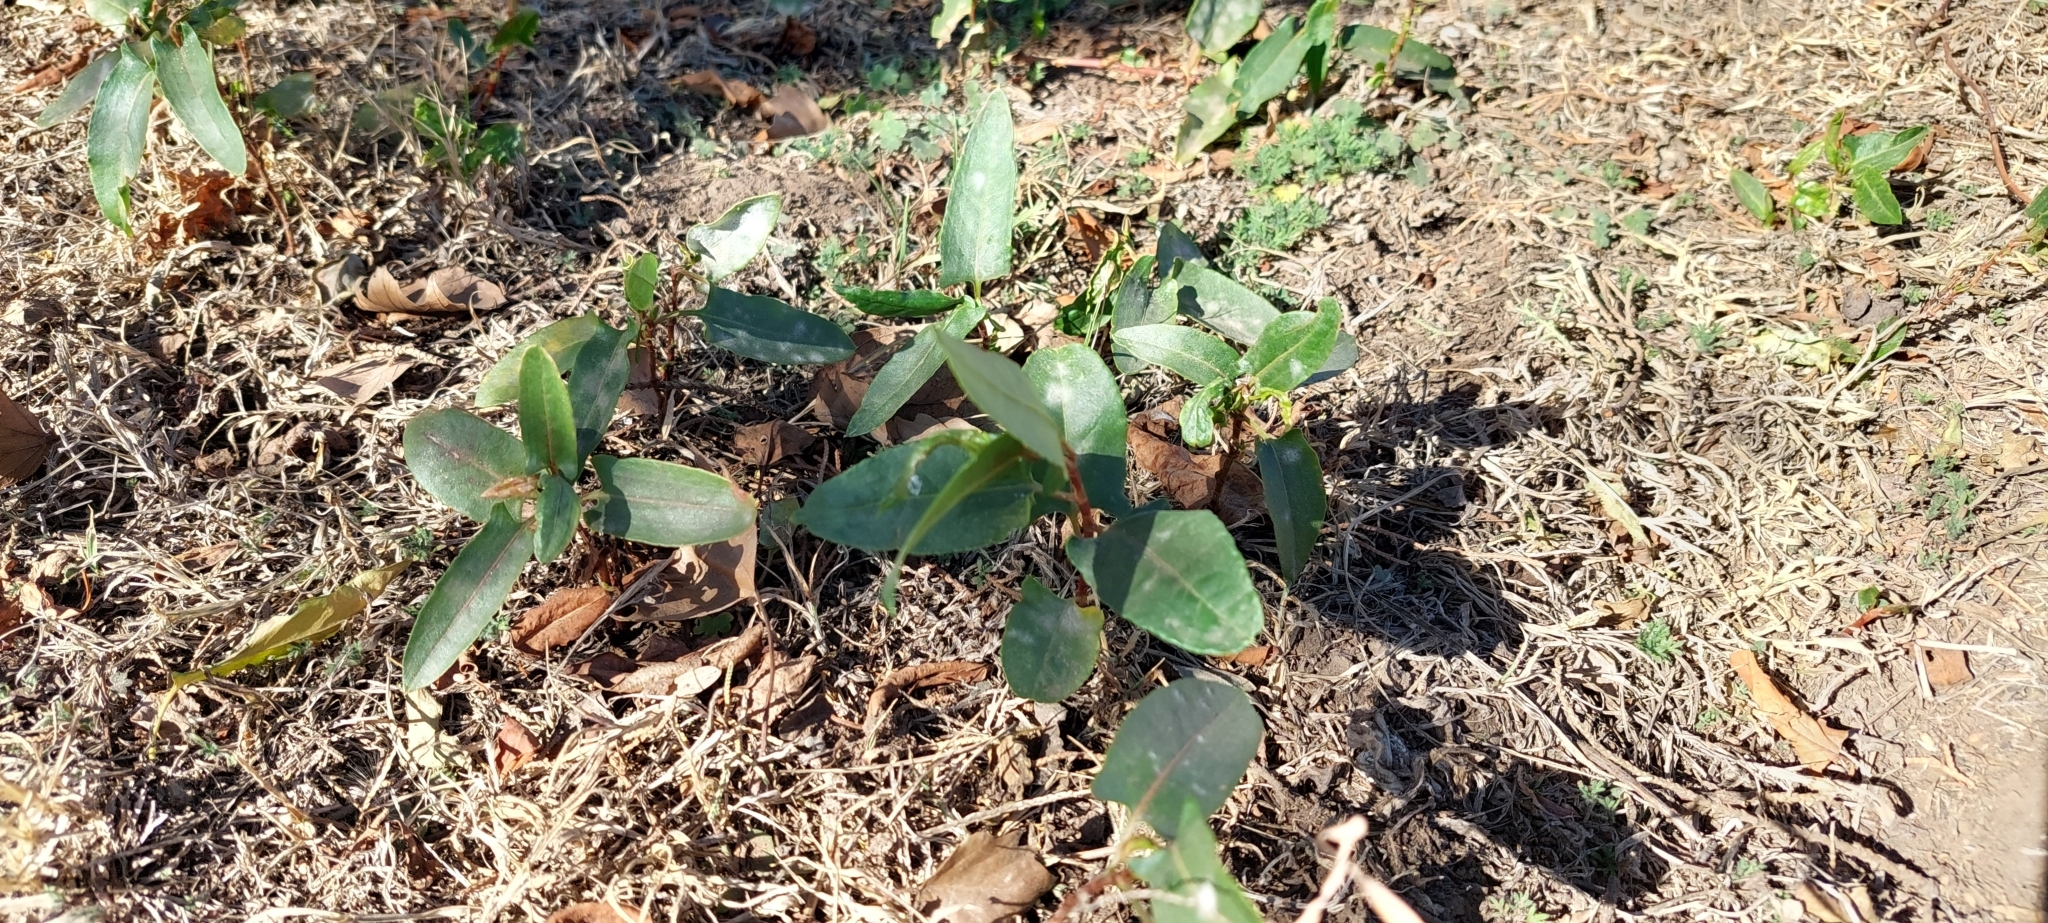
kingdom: Plantae
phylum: Tracheophyta
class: Magnoliopsida
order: Caryophyllales
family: Polygonaceae
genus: Muehlenbeckia
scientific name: Muehlenbeckia sagittifolia
